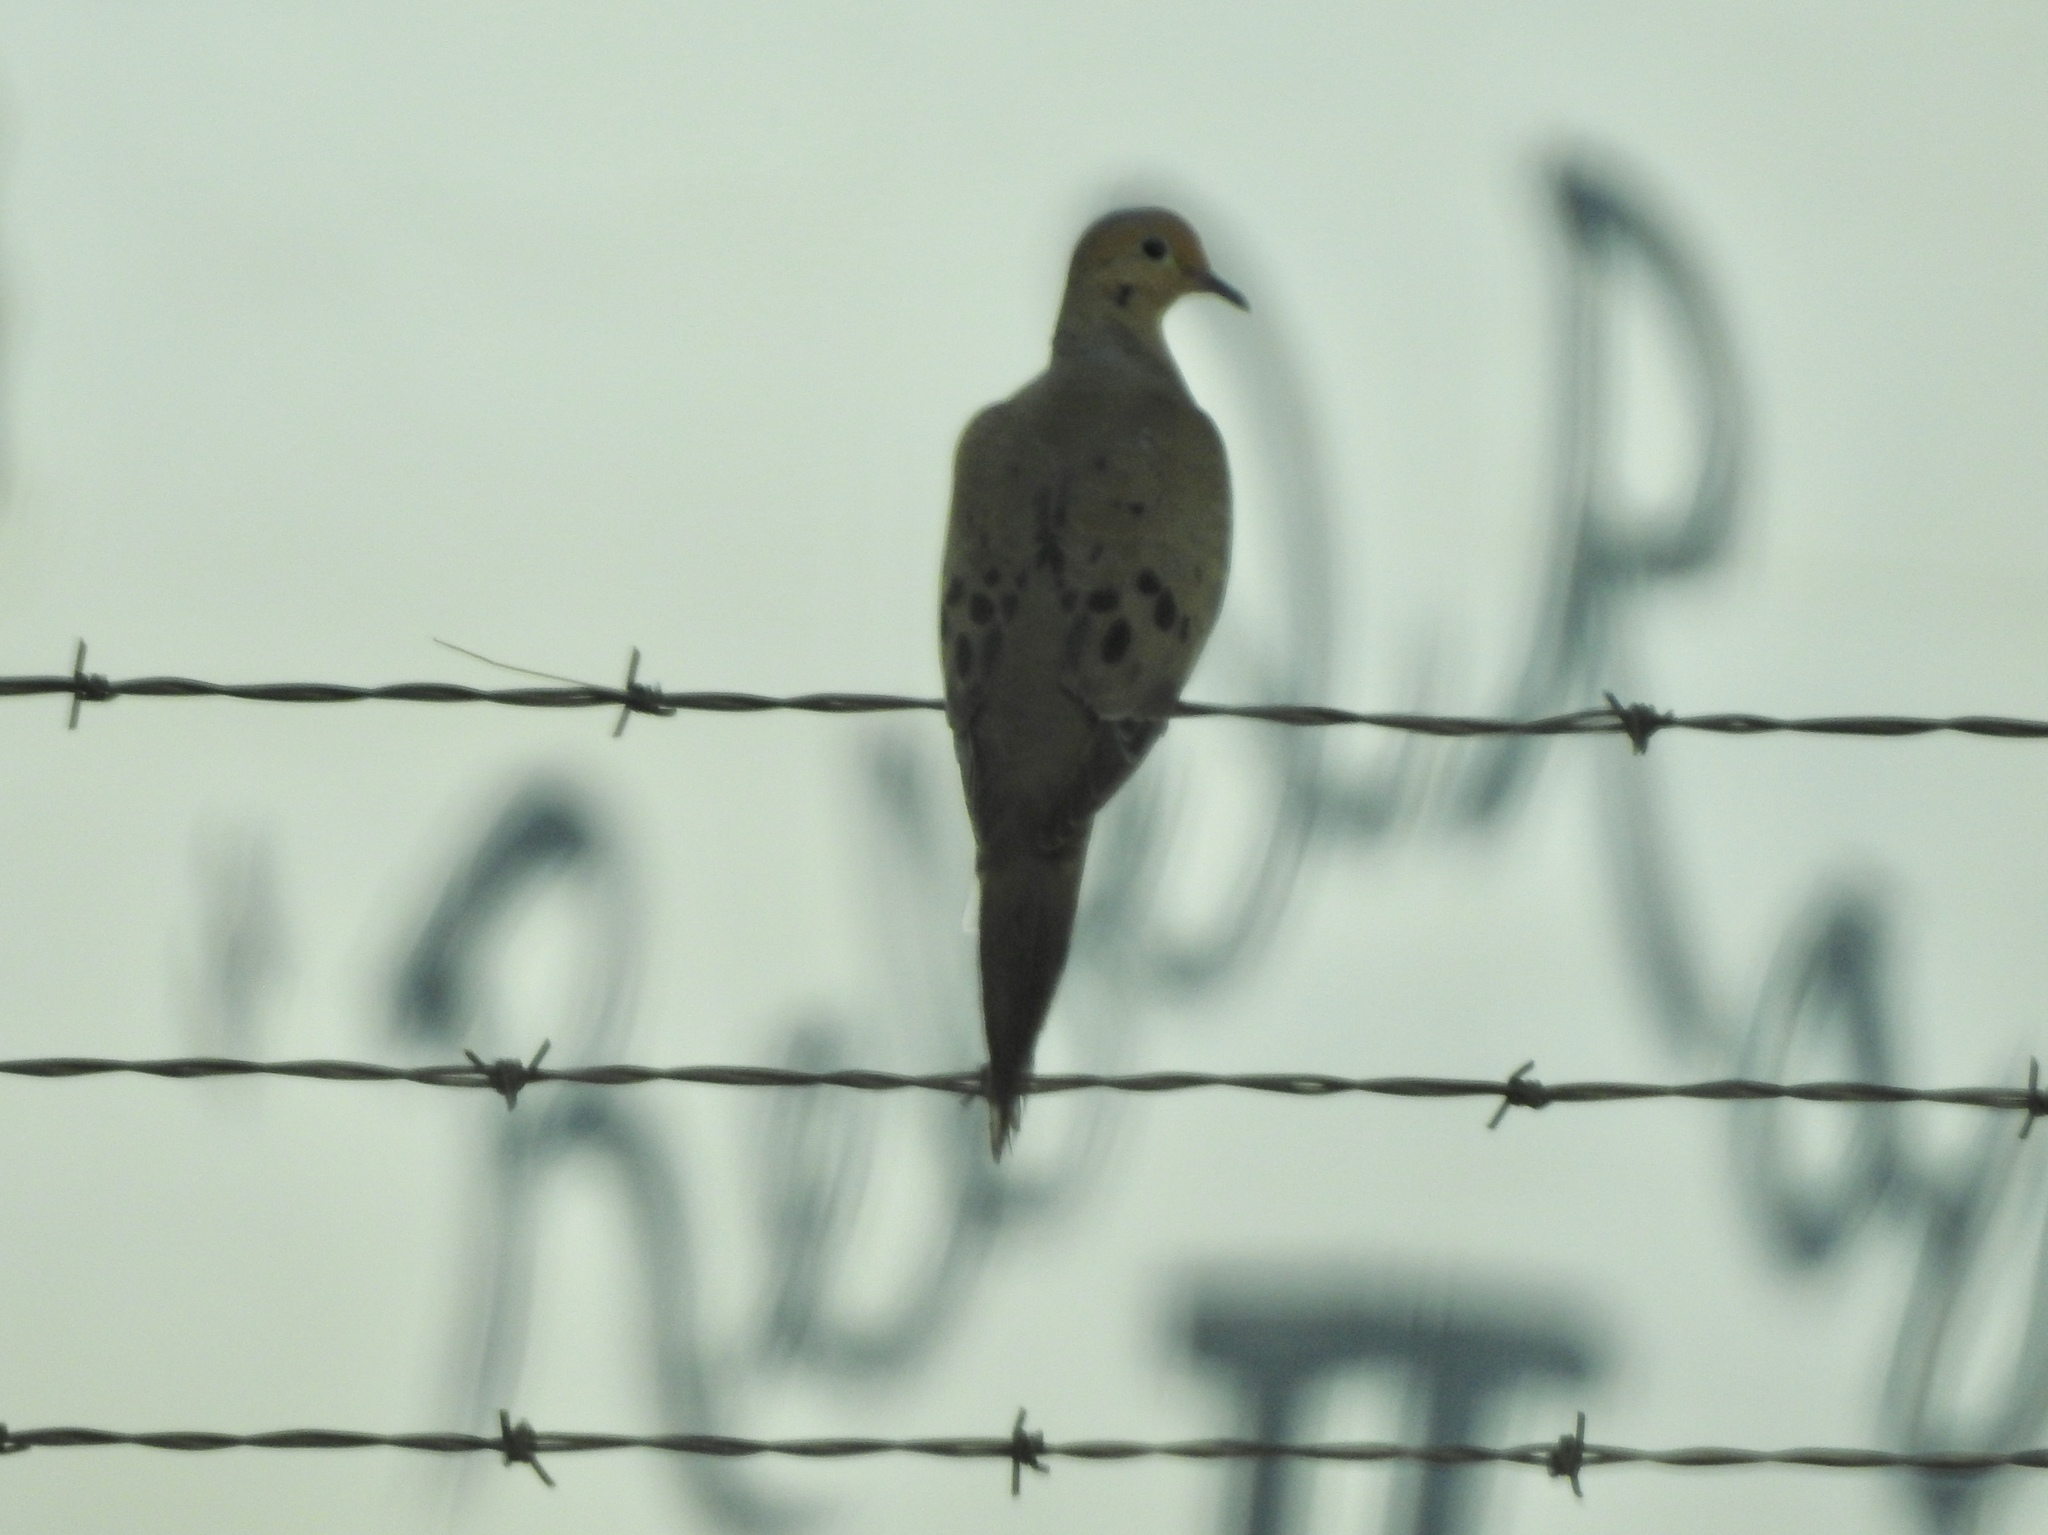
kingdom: Animalia
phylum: Chordata
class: Aves
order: Columbiformes
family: Columbidae
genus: Zenaida
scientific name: Zenaida macroura
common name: Mourning dove
